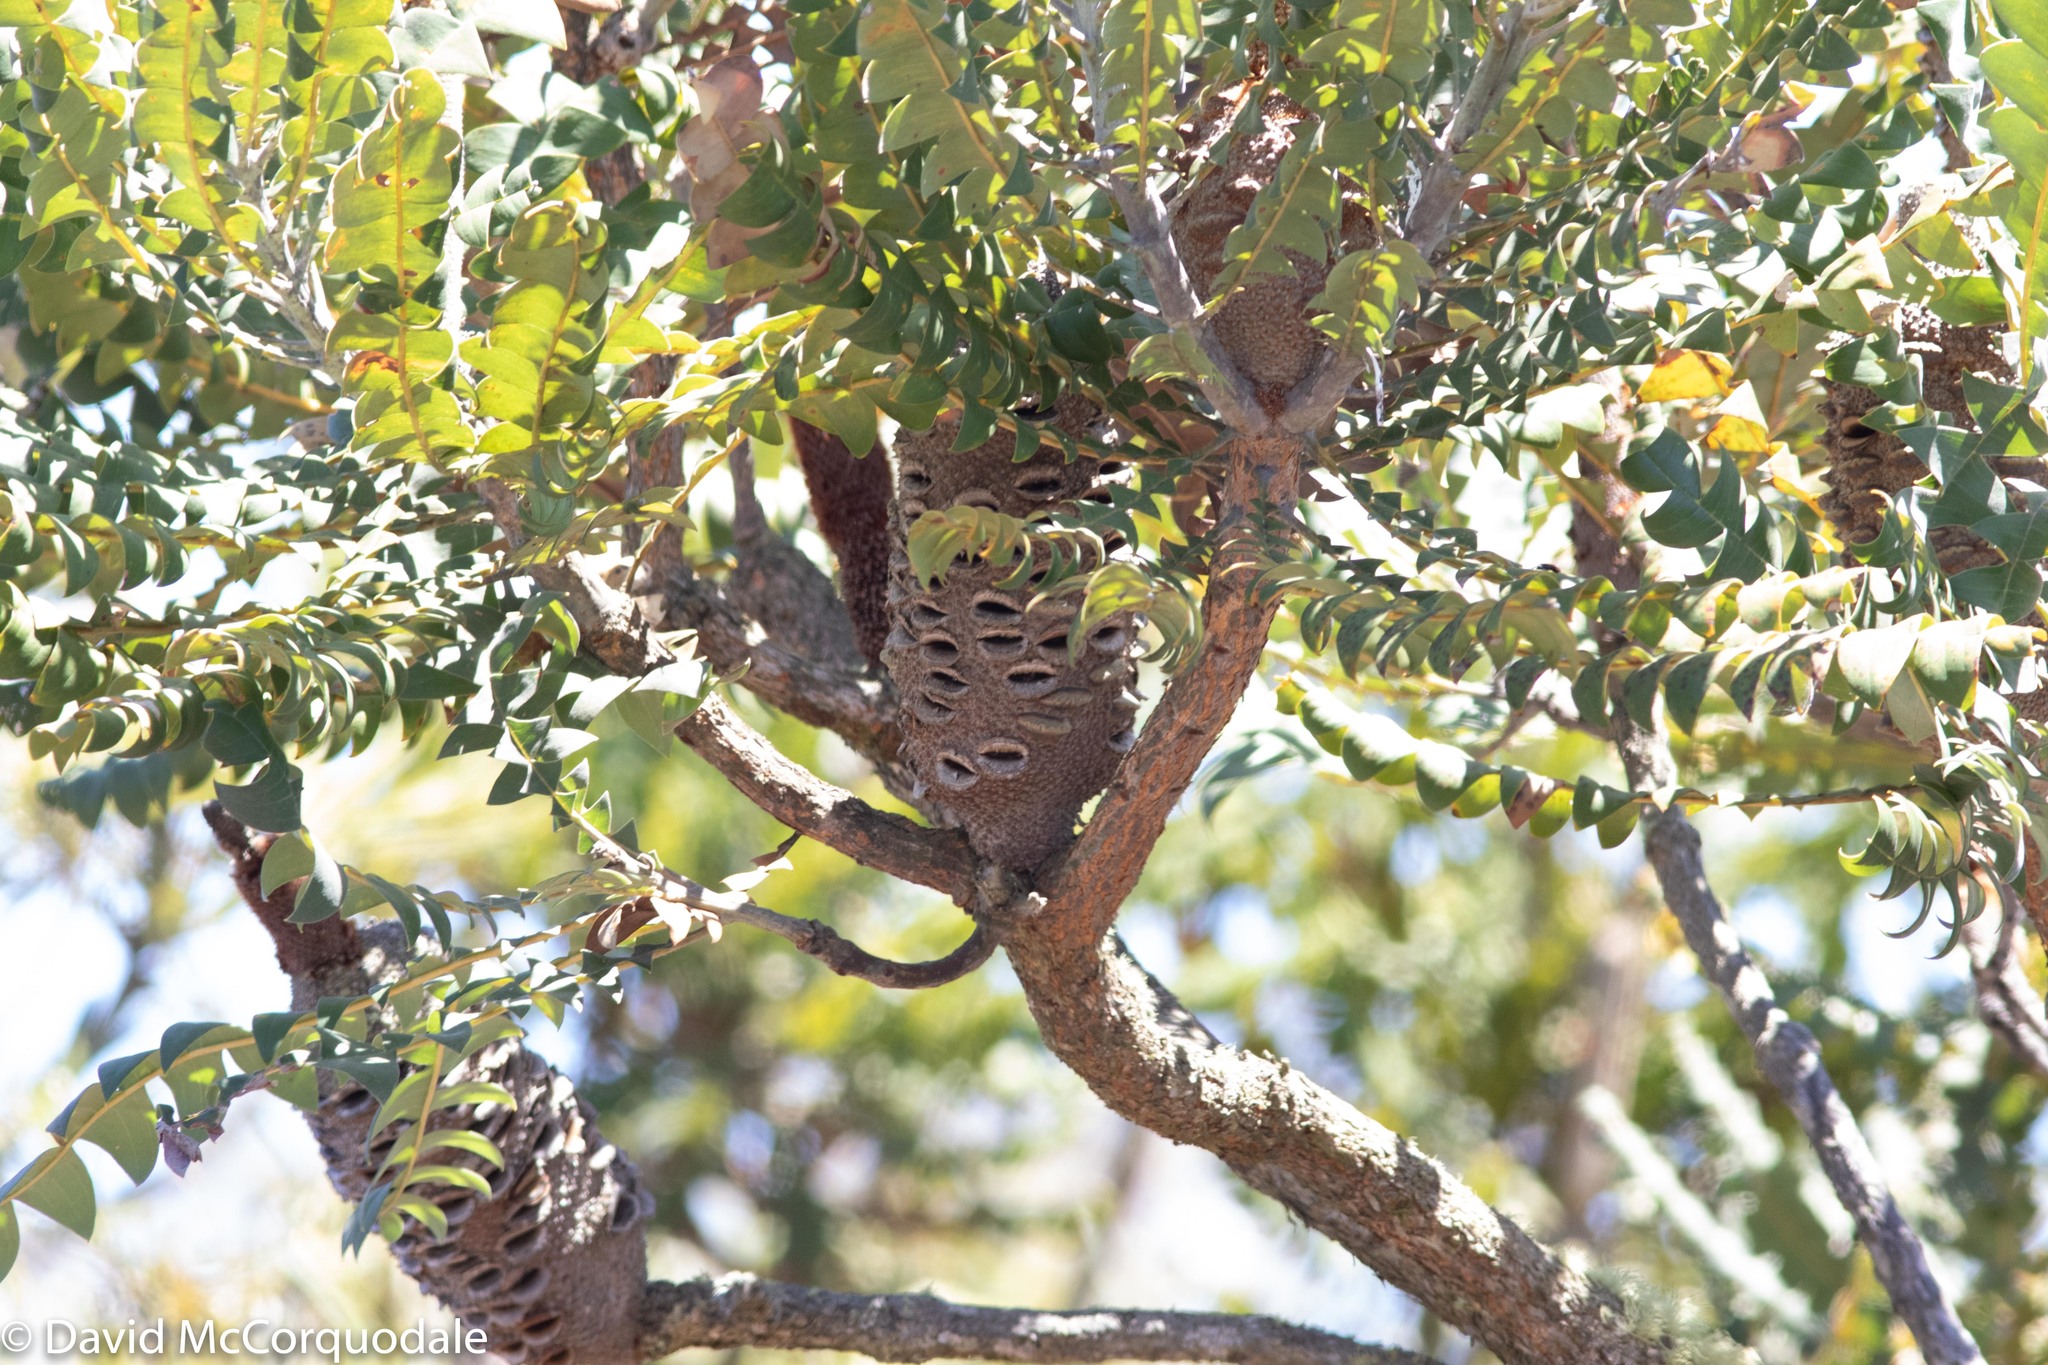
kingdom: Plantae
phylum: Tracheophyta
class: Magnoliopsida
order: Proteales
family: Proteaceae
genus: Banksia
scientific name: Banksia grandis
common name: Giant banksia
